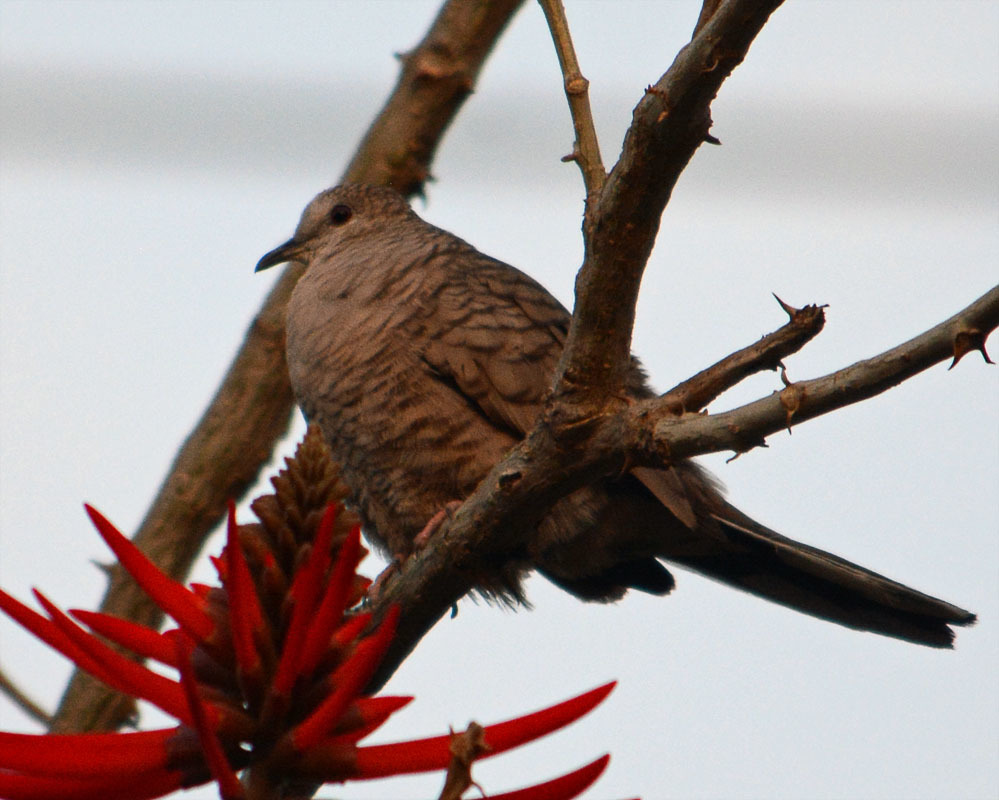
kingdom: Animalia
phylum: Chordata
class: Aves
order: Columbiformes
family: Columbidae
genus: Columbina
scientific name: Columbina inca
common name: Inca dove
